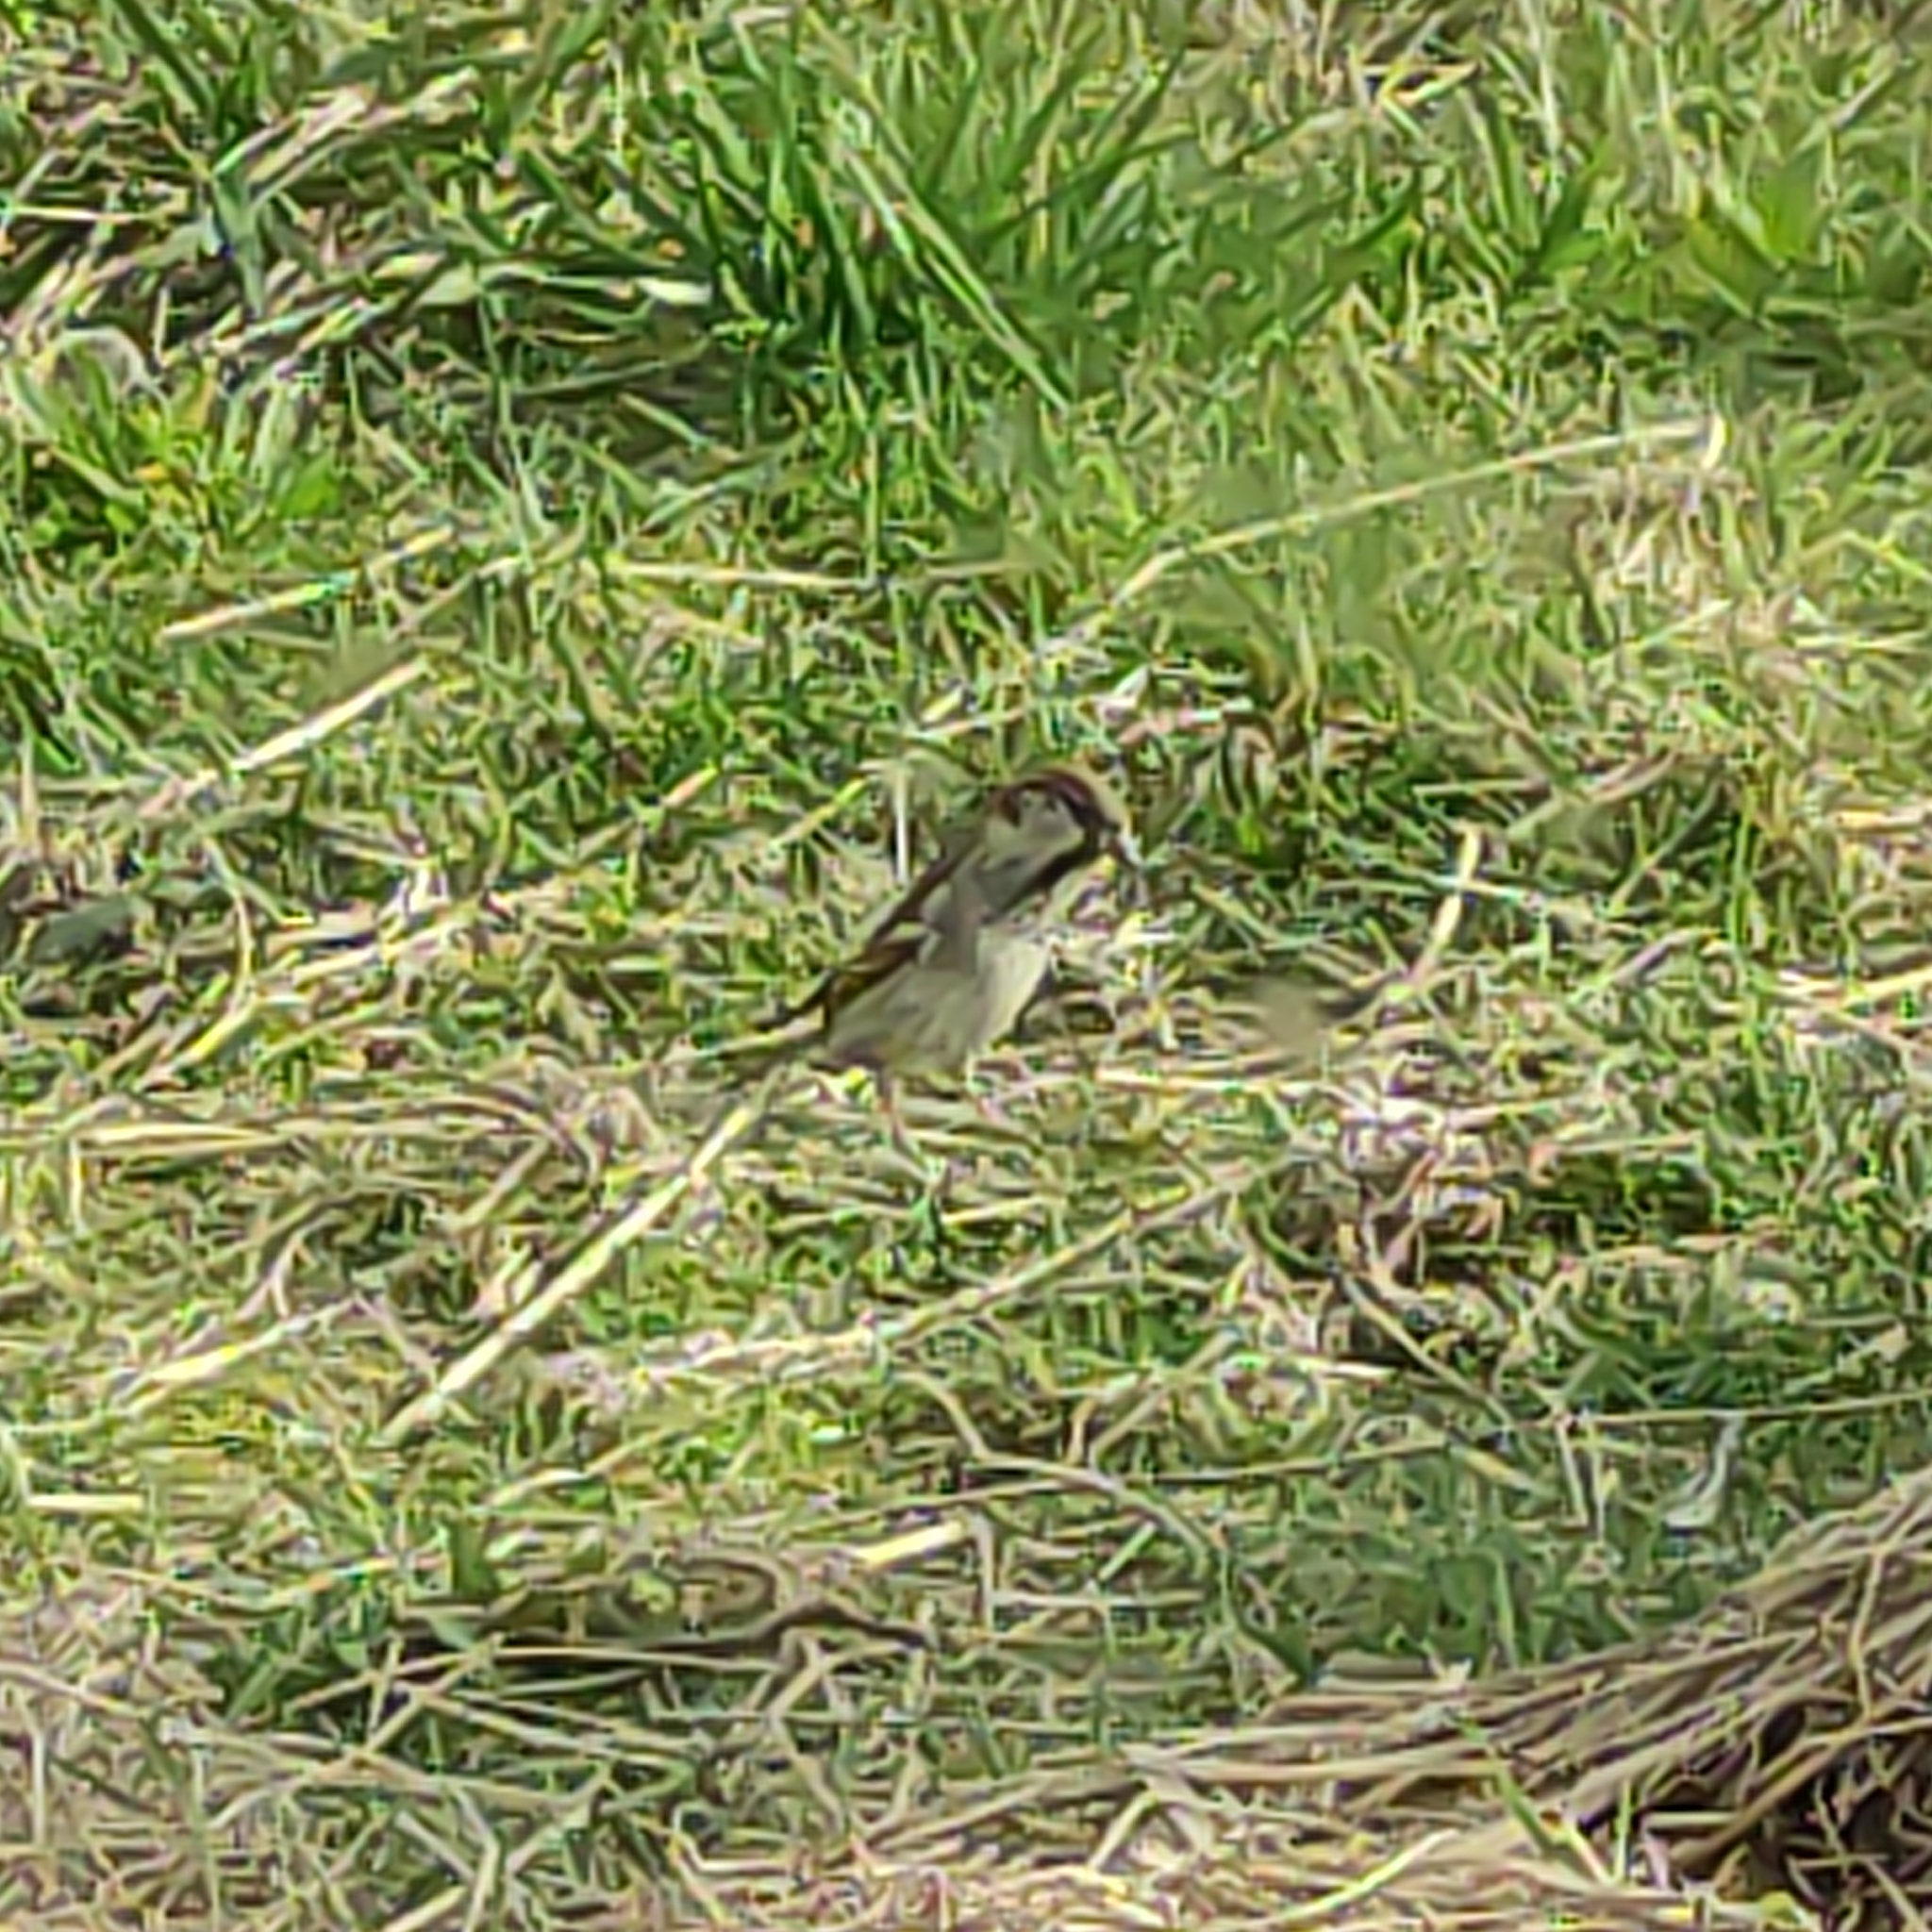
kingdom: Animalia
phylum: Chordata
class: Aves
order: Passeriformes
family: Passeridae
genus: Passer
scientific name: Passer domesticus
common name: House sparrow
